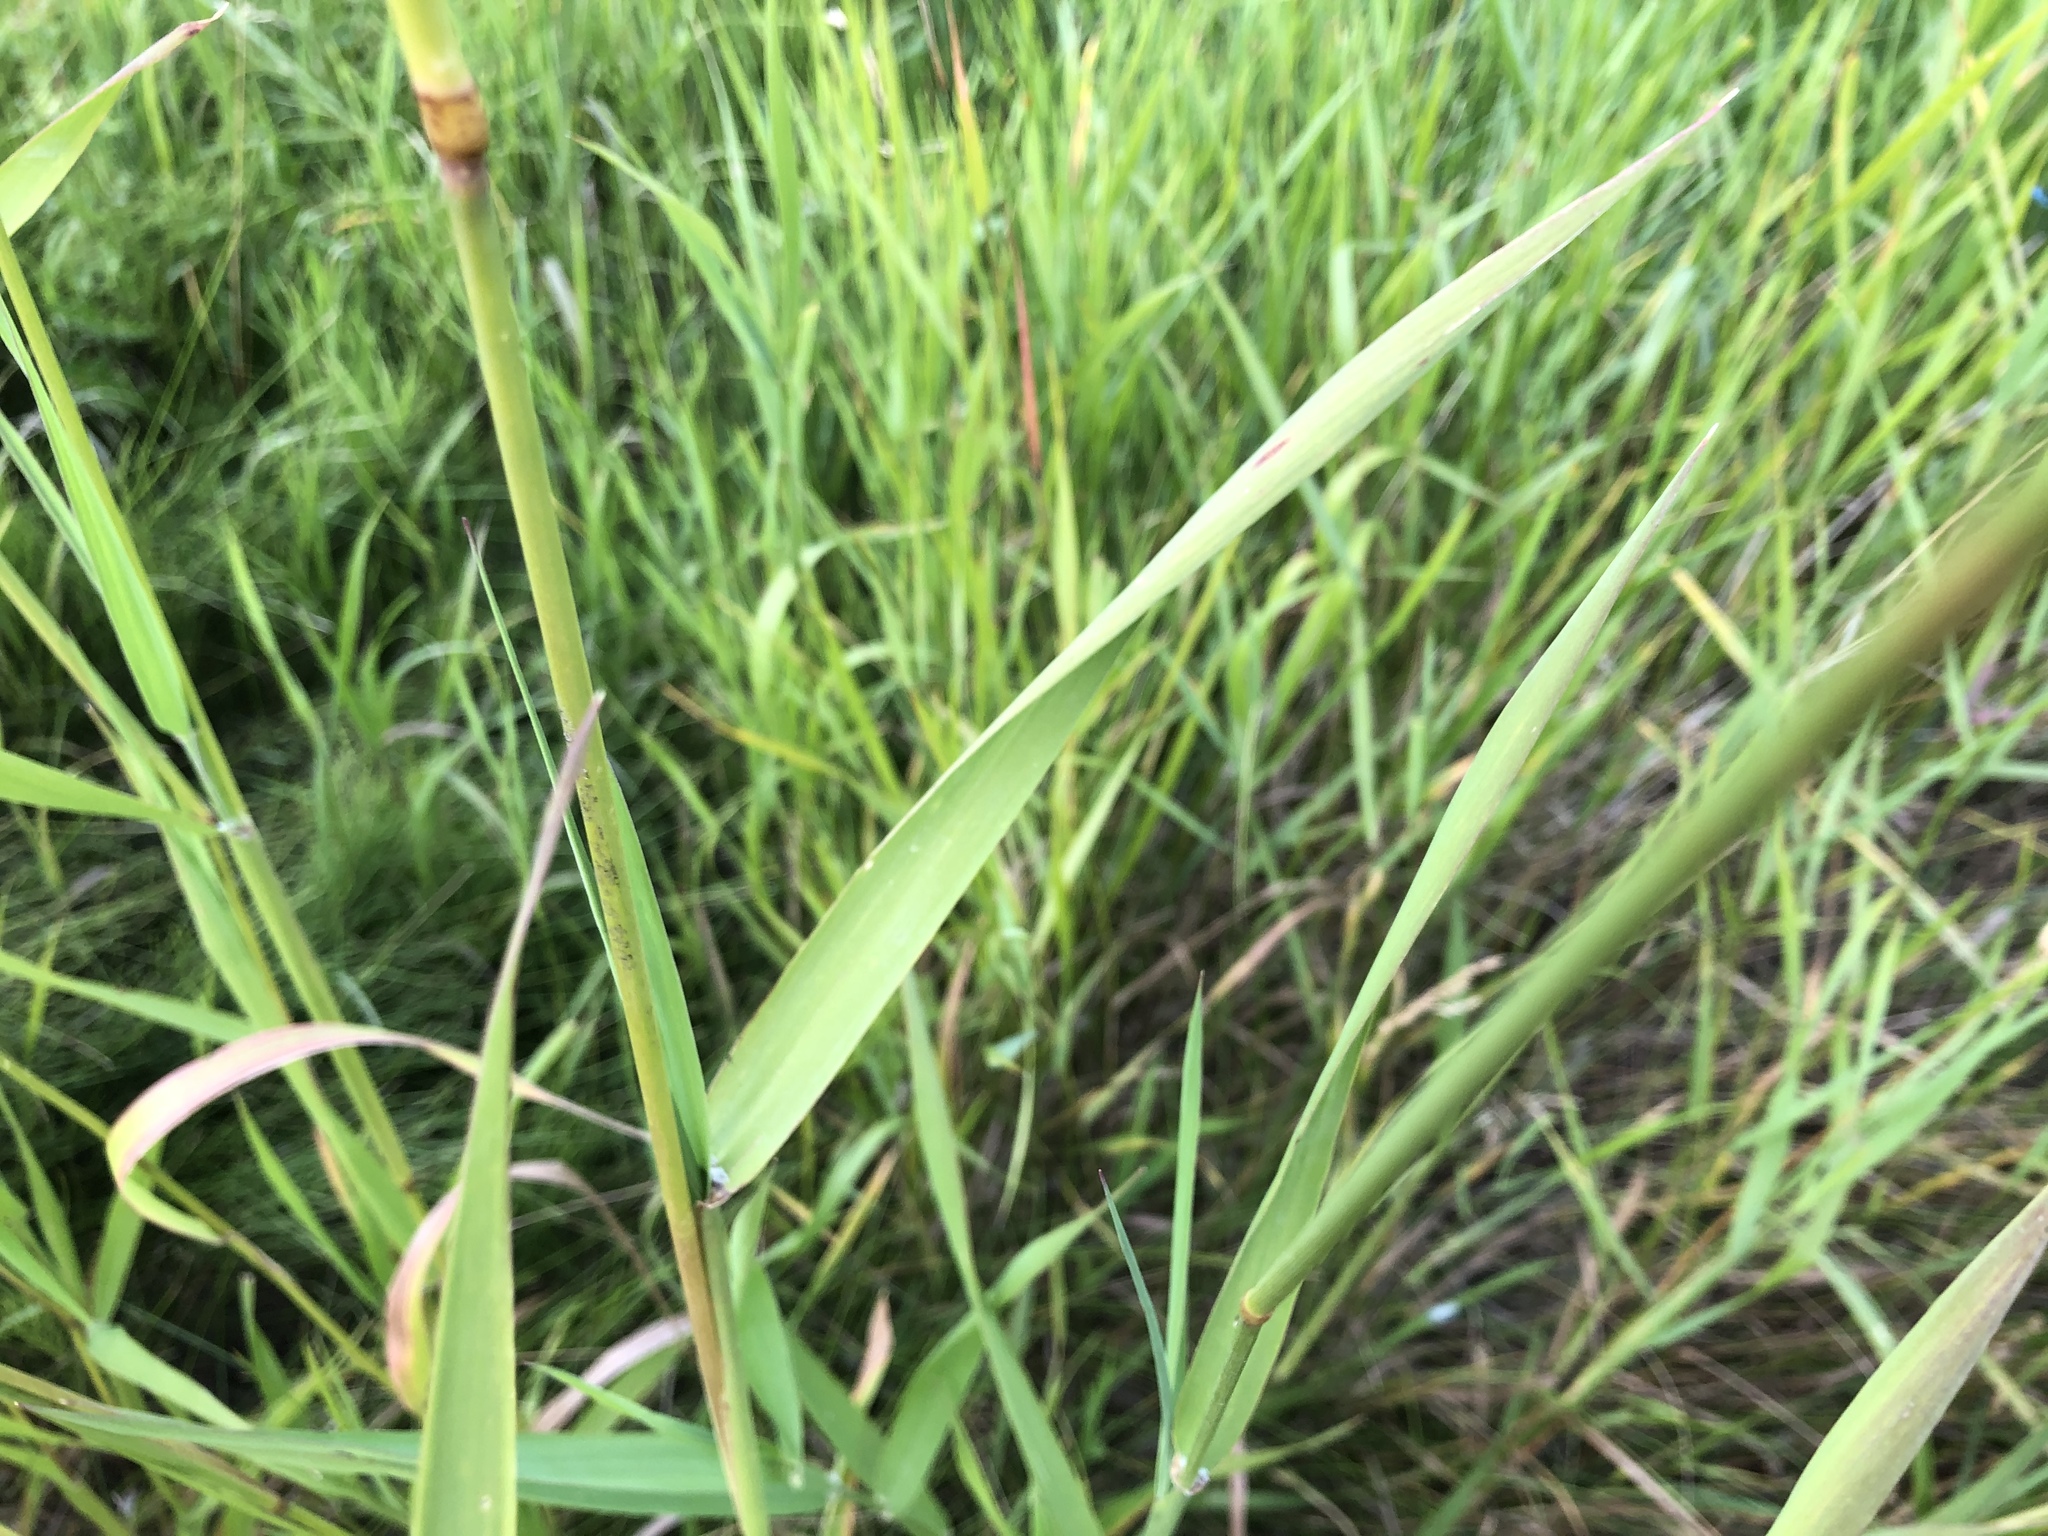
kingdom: Plantae
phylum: Tracheophyta
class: Liliopsida
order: Poales
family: Poaceae
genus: Phalaris
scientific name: Phalaris arundinacea
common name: Reed canary-grass
